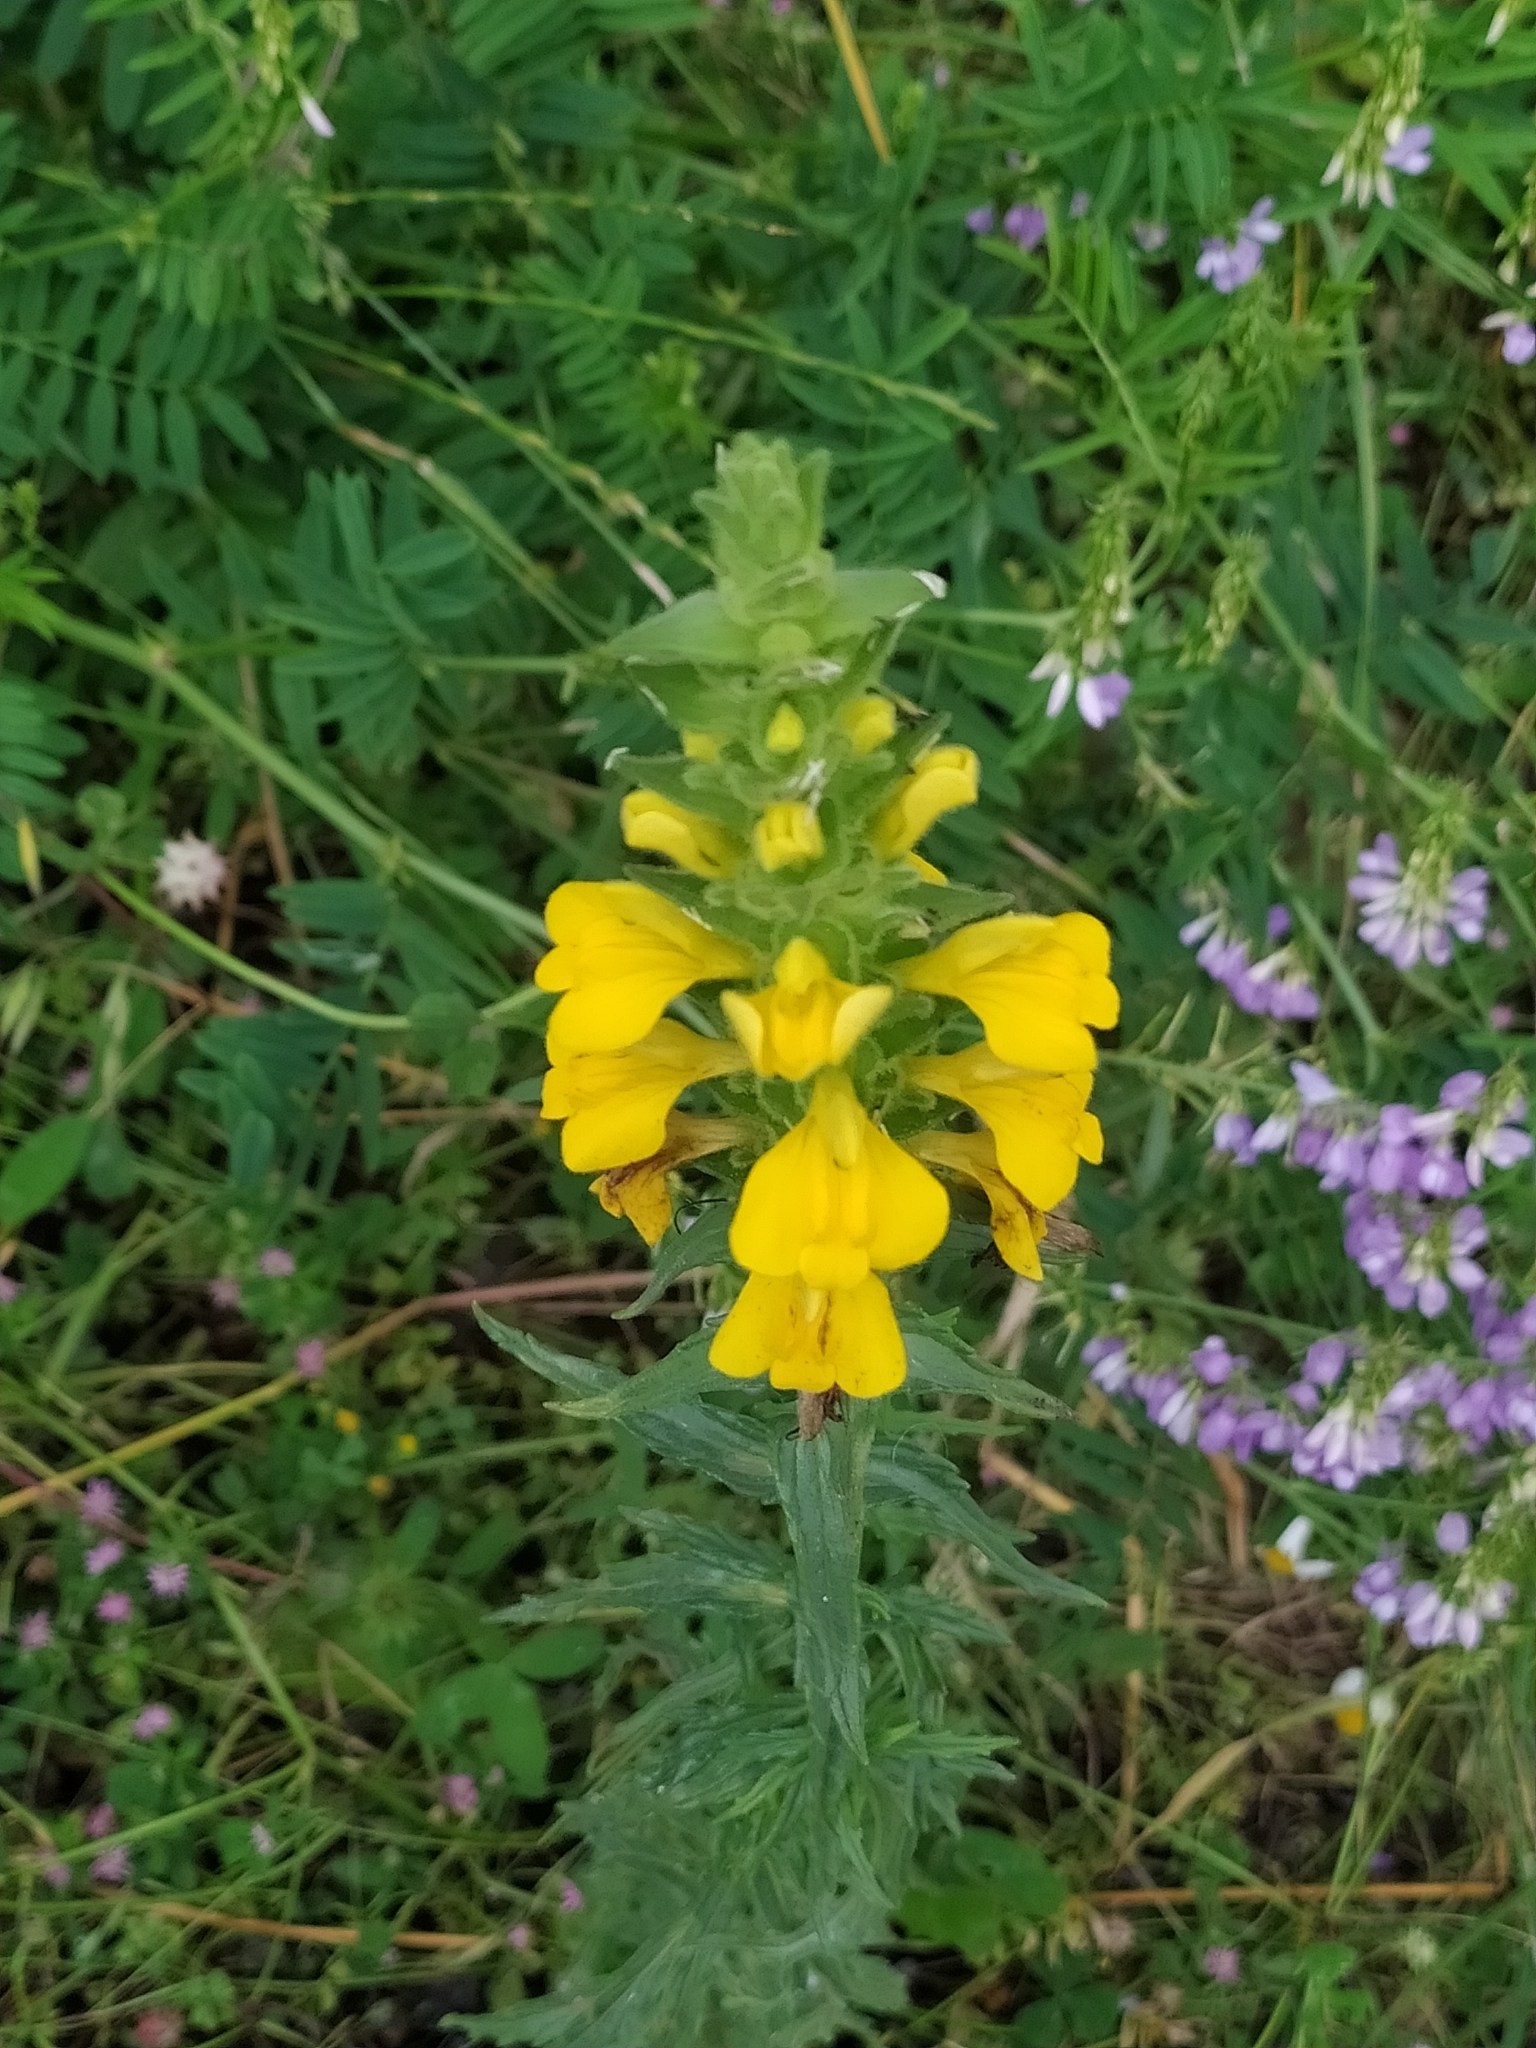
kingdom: Plantae
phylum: Tracheophyta
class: Magnoliopsida
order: Lamiales
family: Orobanchaceae
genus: Bellardia
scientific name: Bellardia trixago
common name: Mediterranean lineseed
